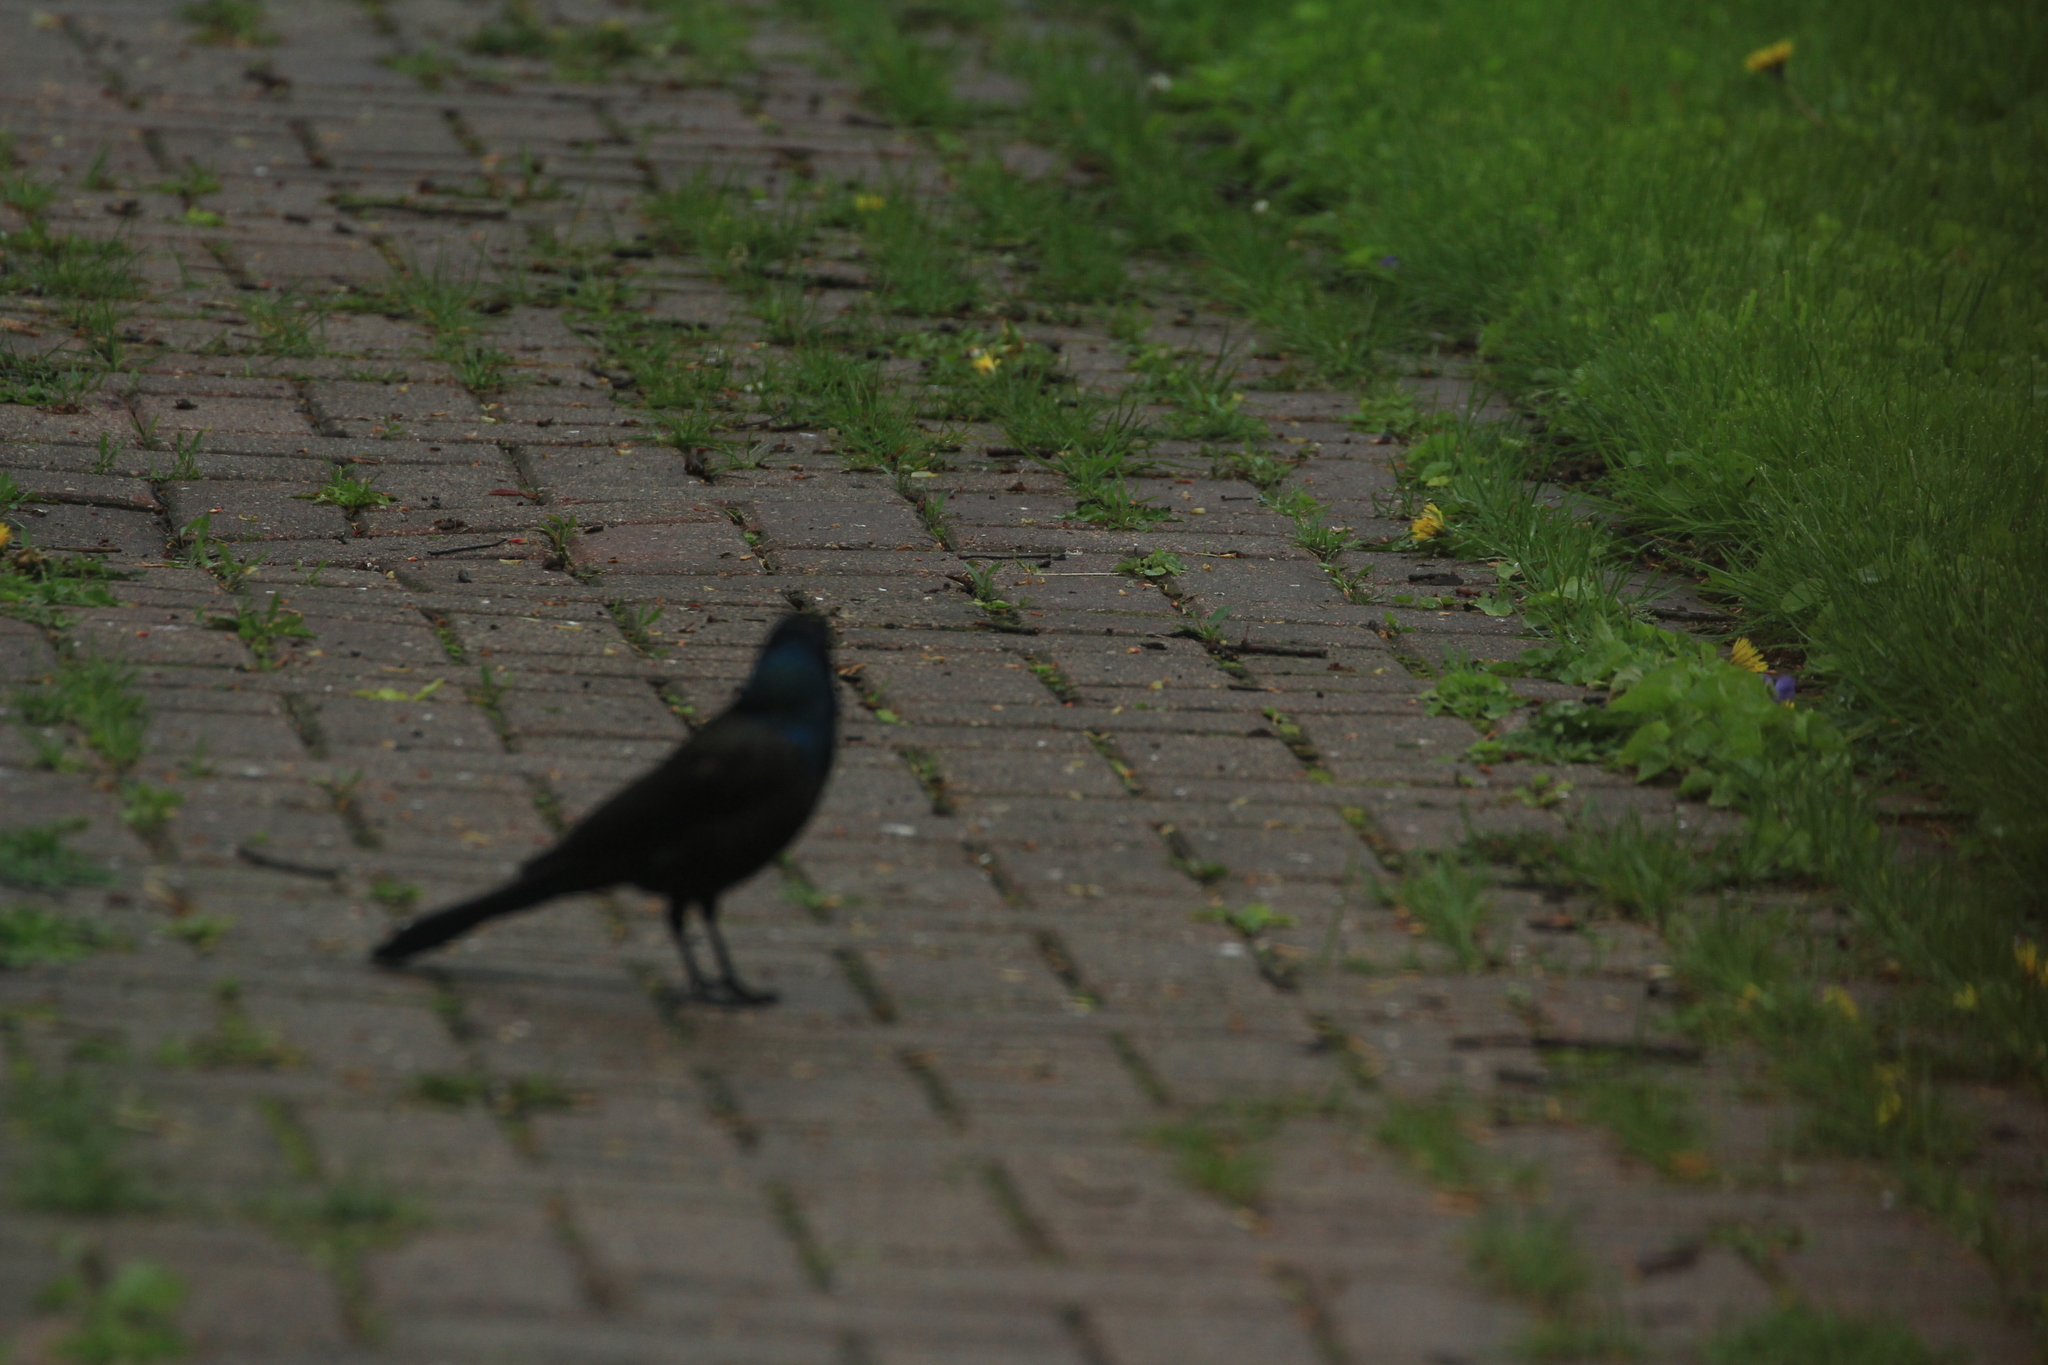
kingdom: Animalia
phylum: Chordata
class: Aves
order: Passeriformes
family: Icteridae
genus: Quiscalus
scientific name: Quiscalus quiscula
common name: Common grackle
